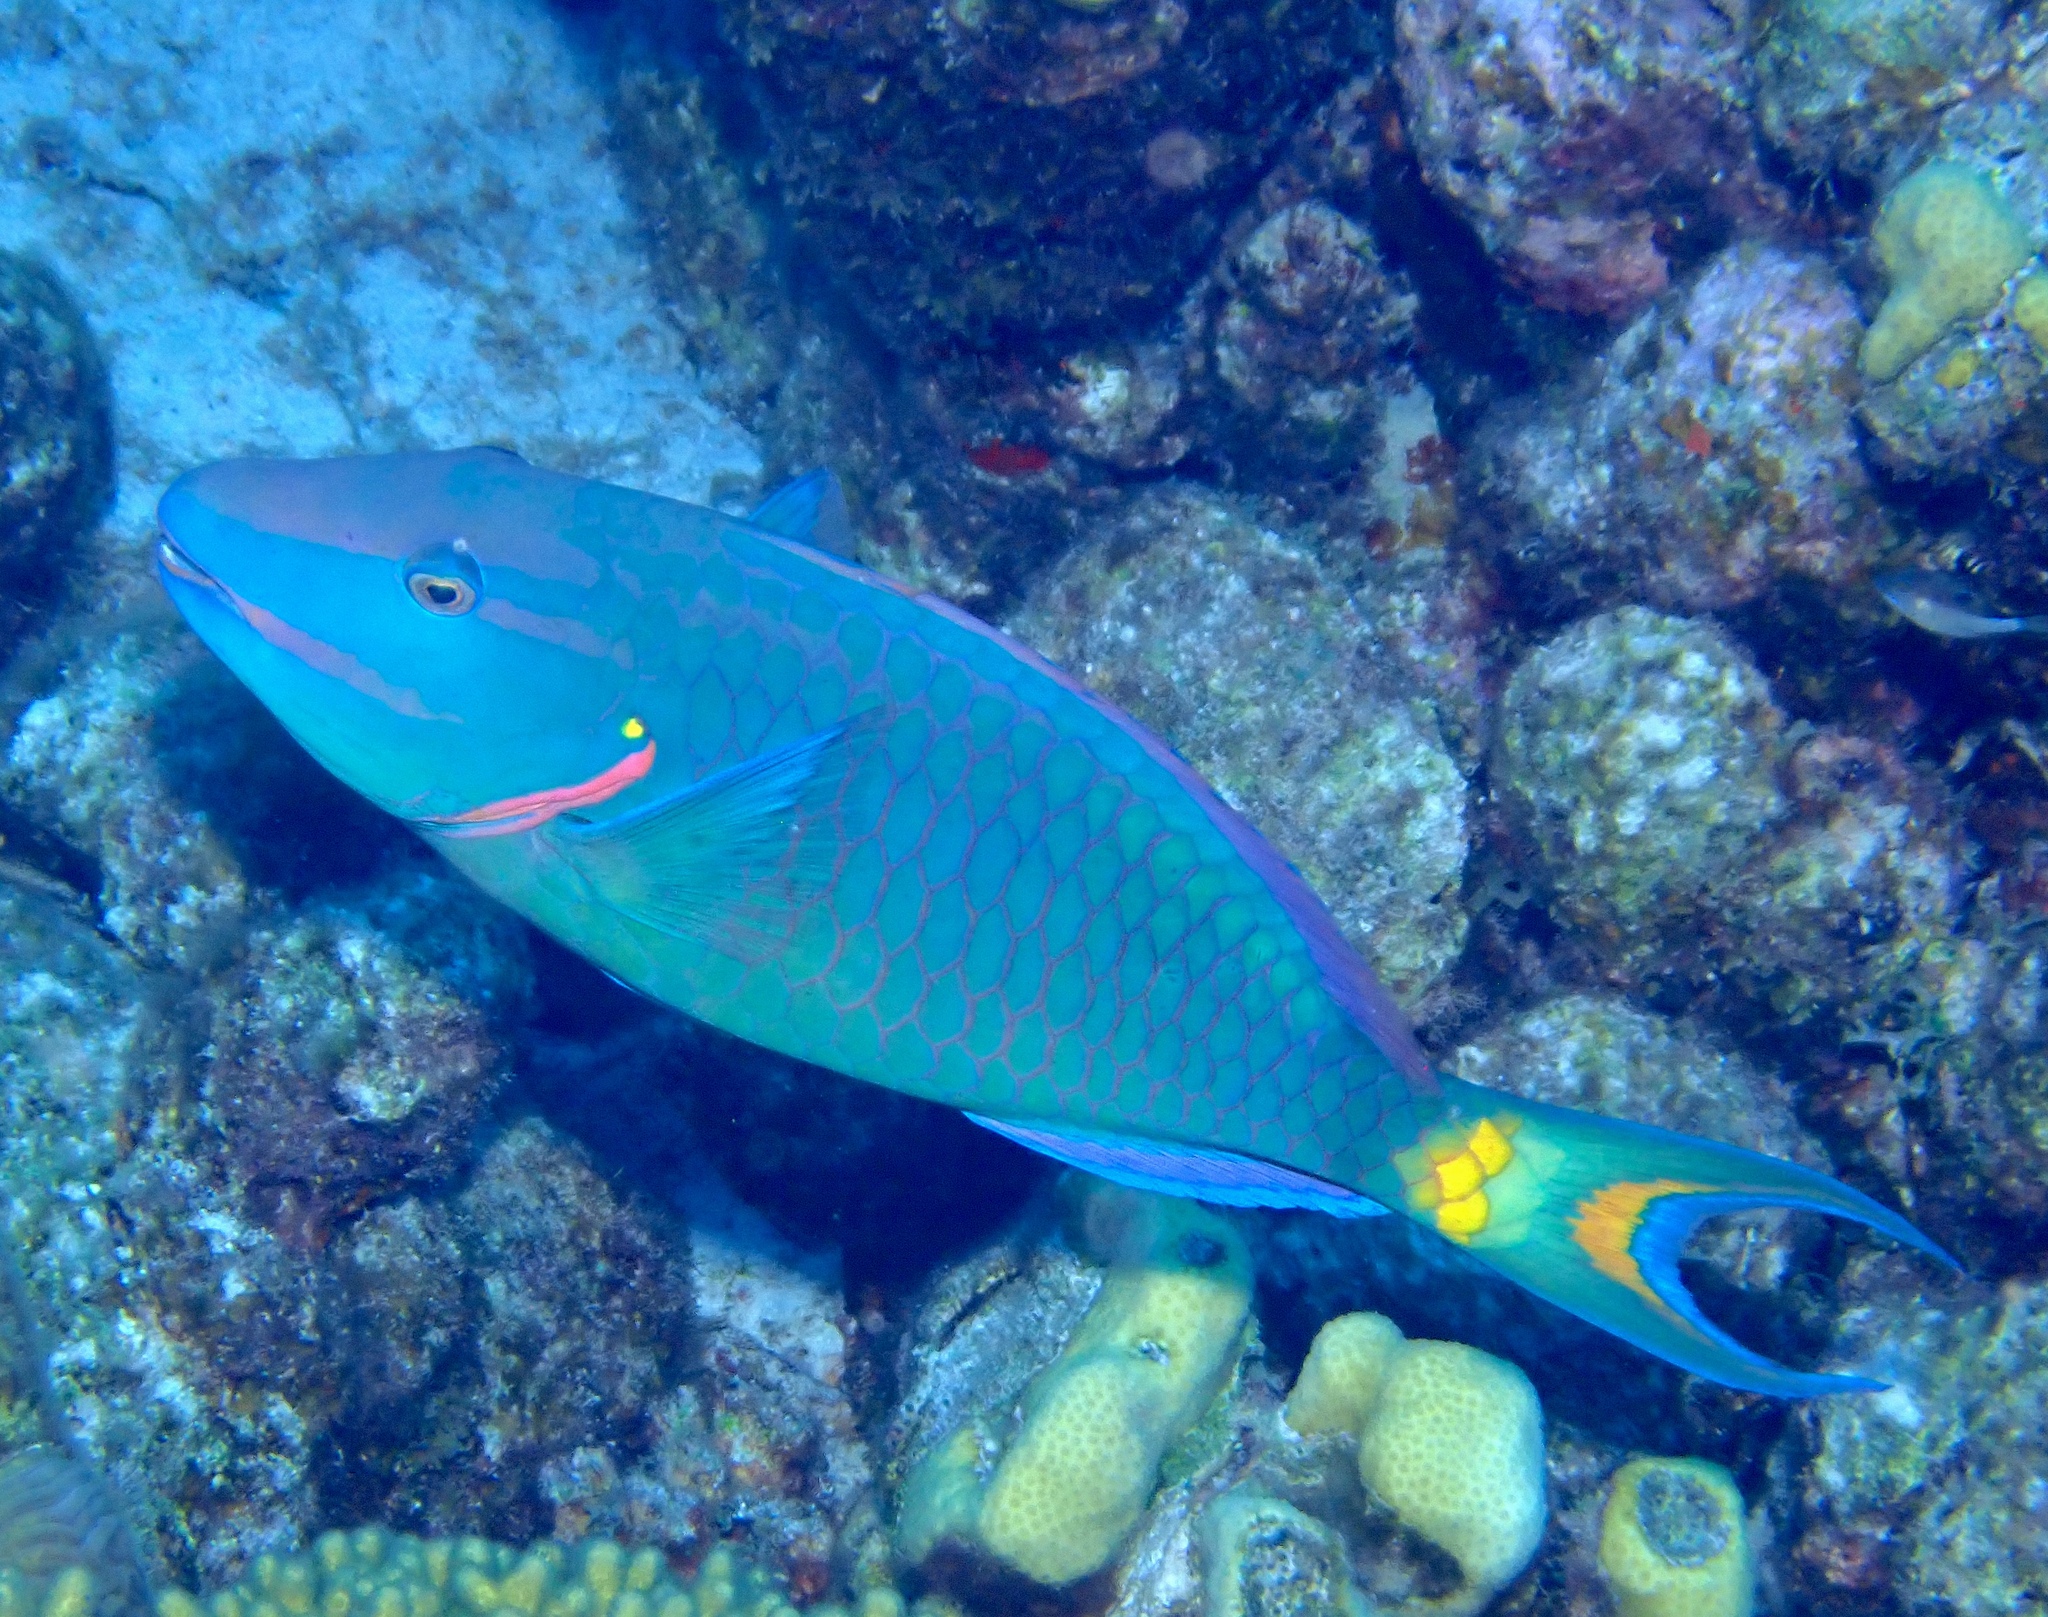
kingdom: Animalia
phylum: Chordata
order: Perciformes
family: Scaridae
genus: Sparisoma
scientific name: Sparisoma viride
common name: Stoplight parrotfish
